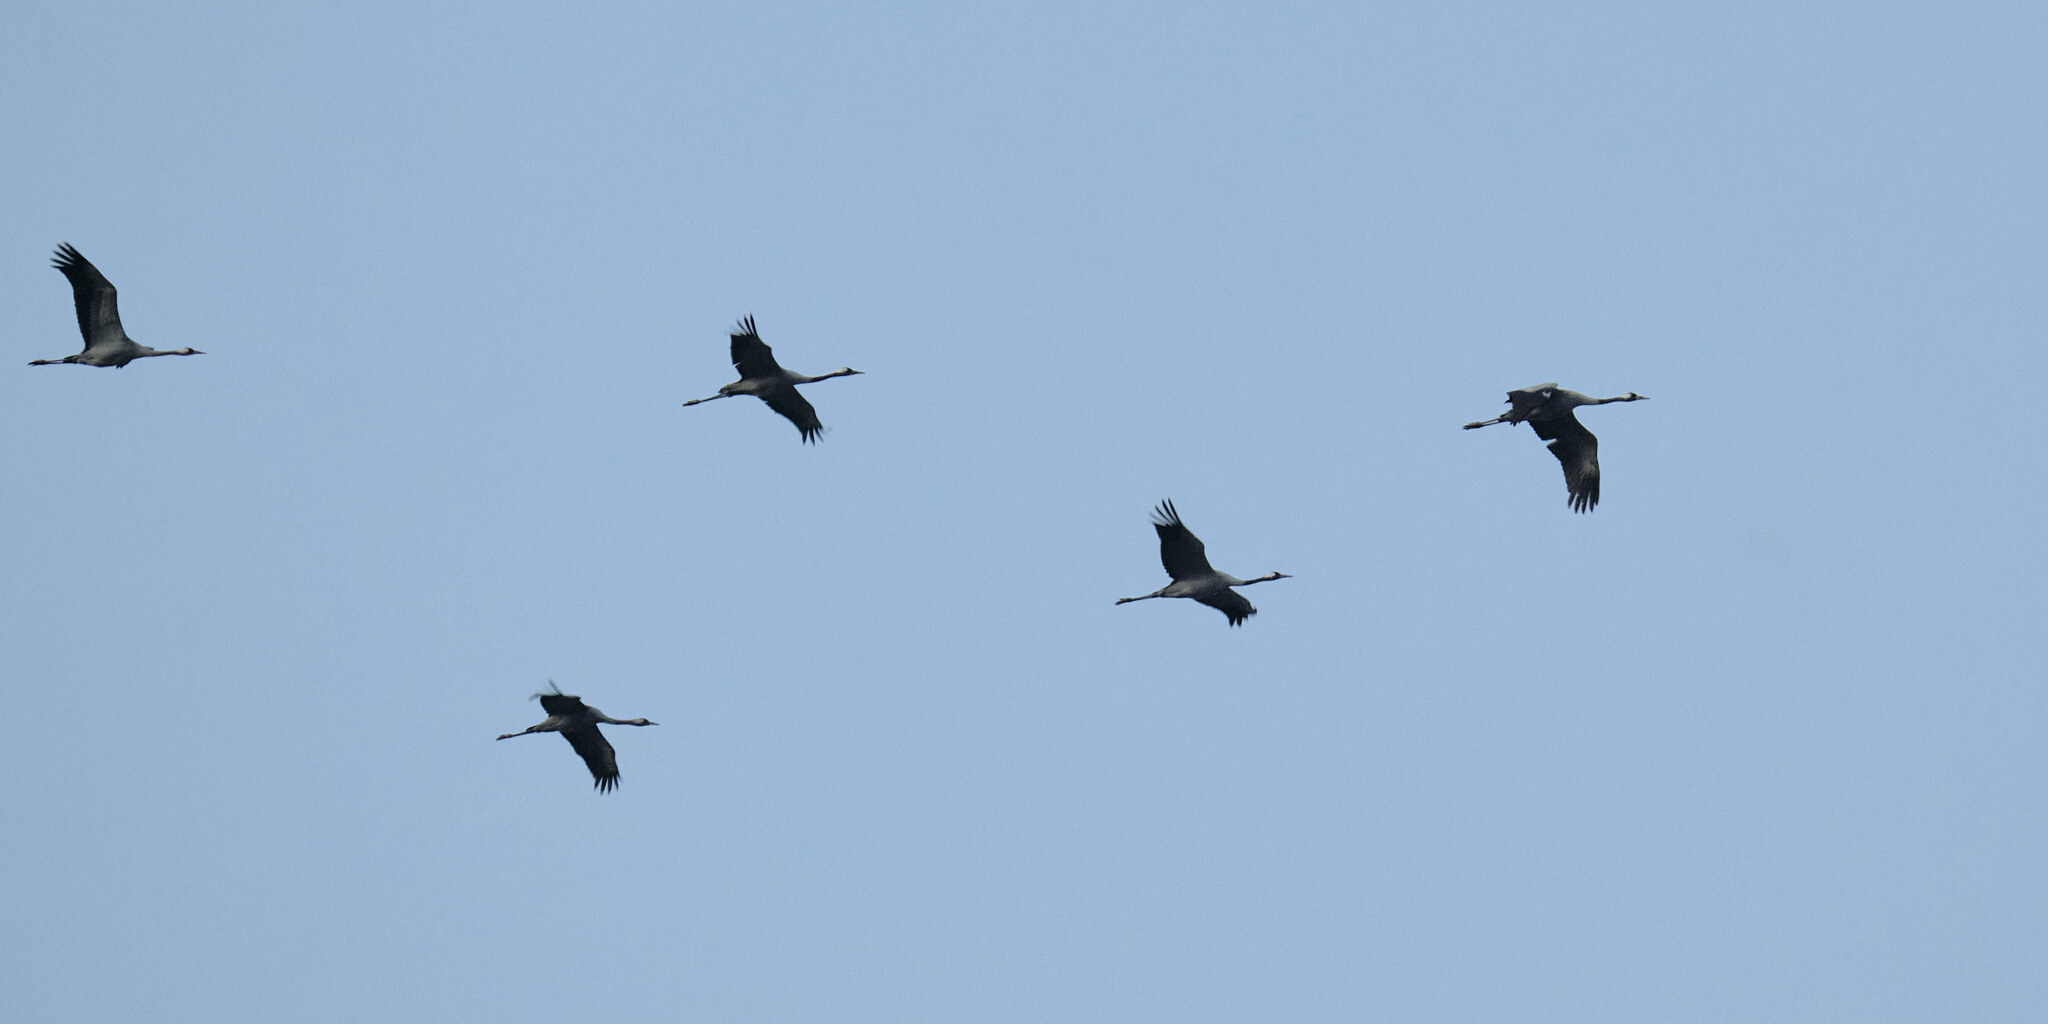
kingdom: Animalia
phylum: Chordata
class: Aves
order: Gruiformes
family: Gruidae
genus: Grus
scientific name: Grus grus
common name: Common crane
